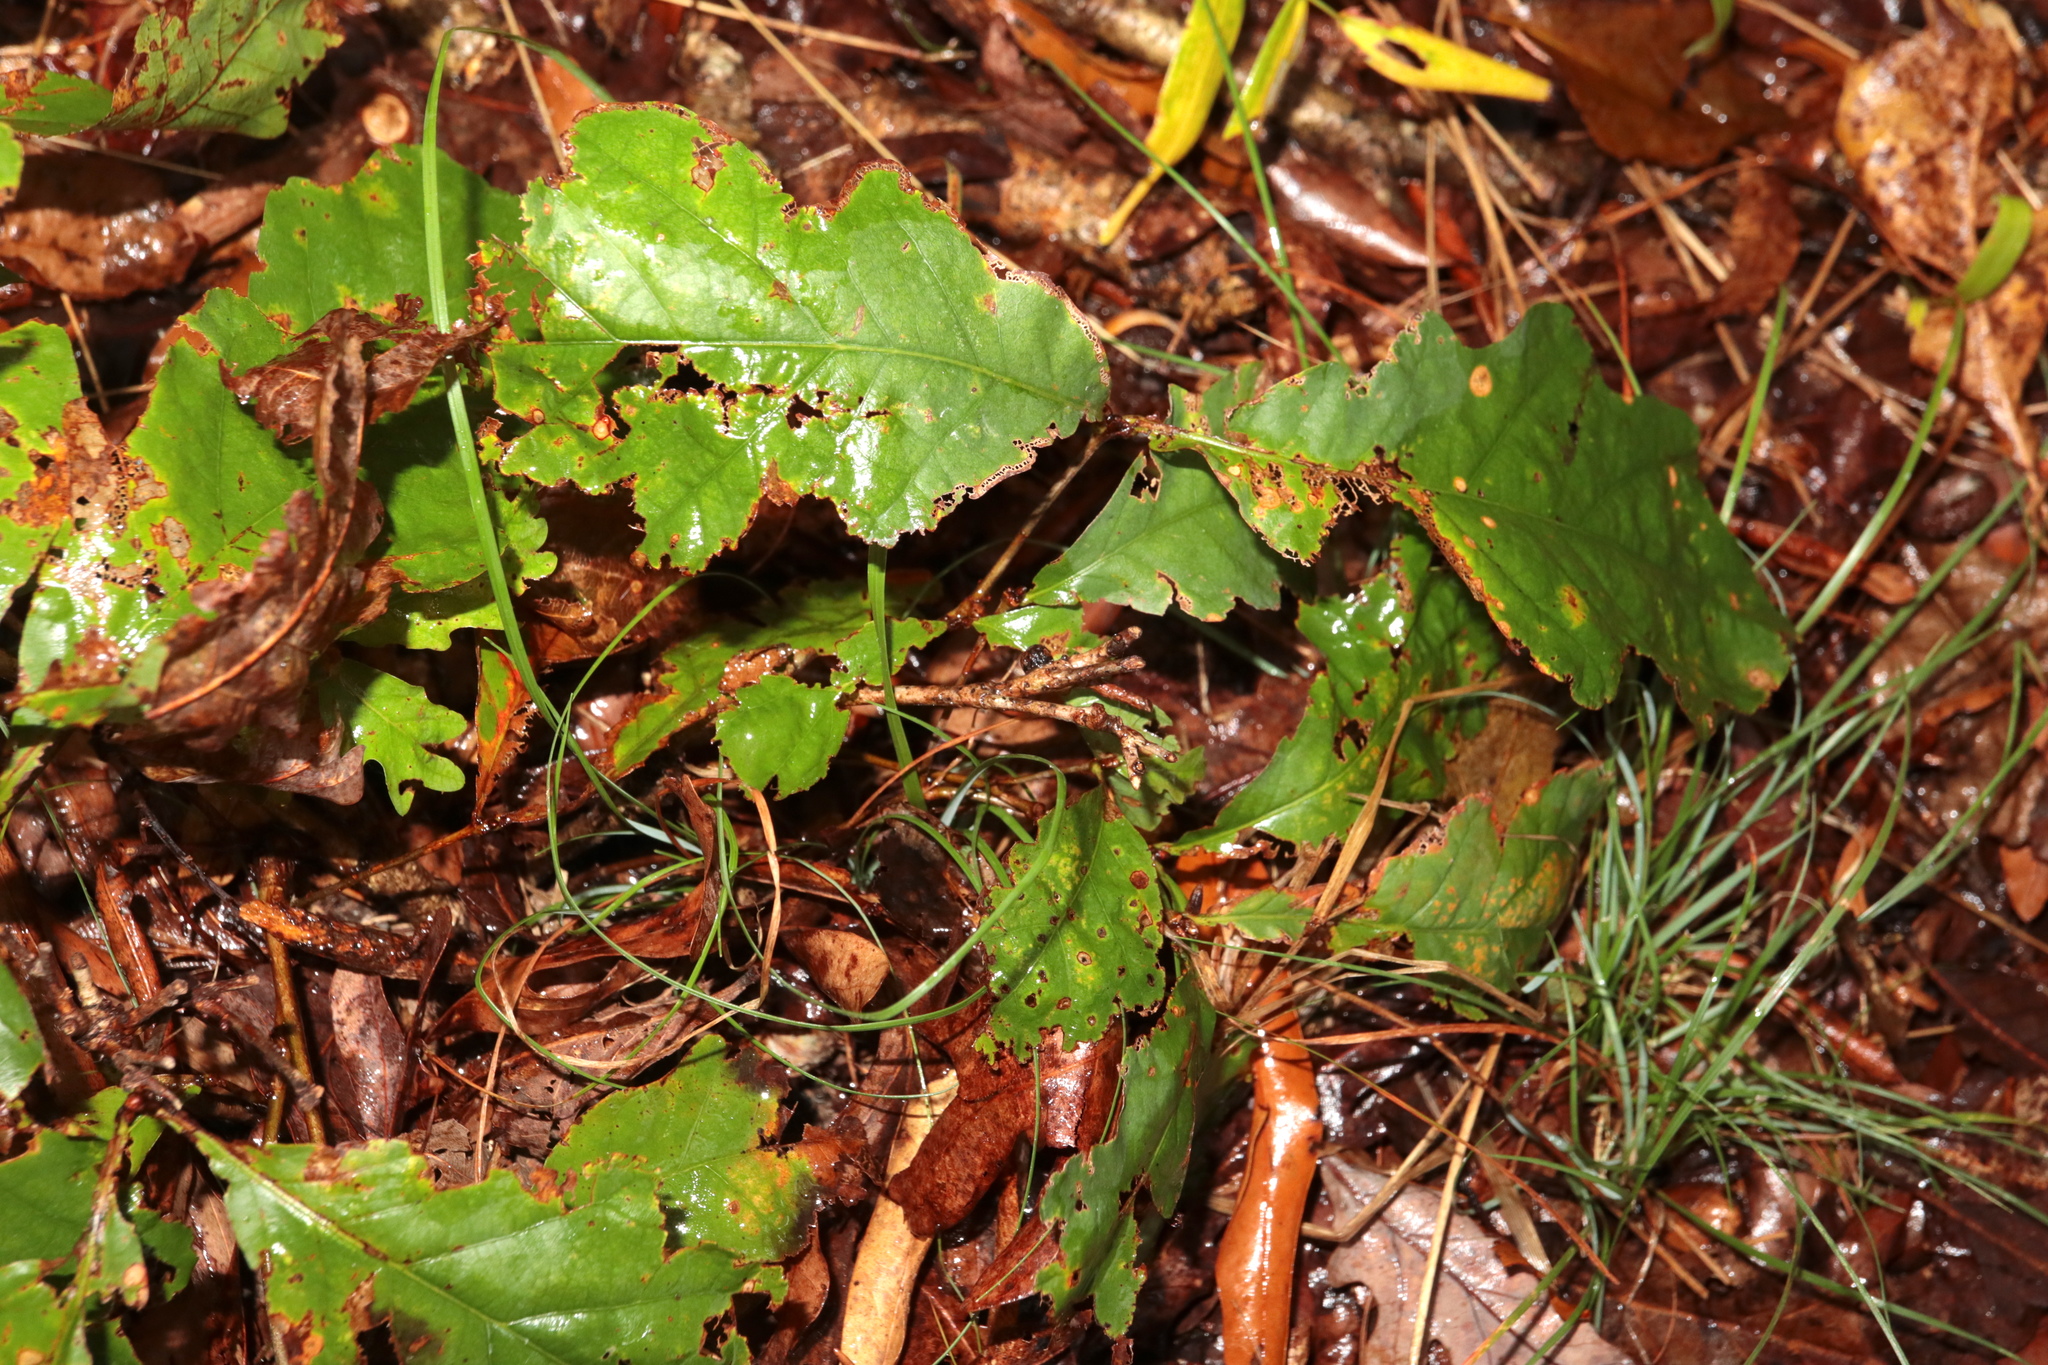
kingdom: Animalia
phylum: Arthropoda
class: Insecta
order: Hymenoptera
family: Cynipidae
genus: Disholcaspis
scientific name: Disholcaspis
